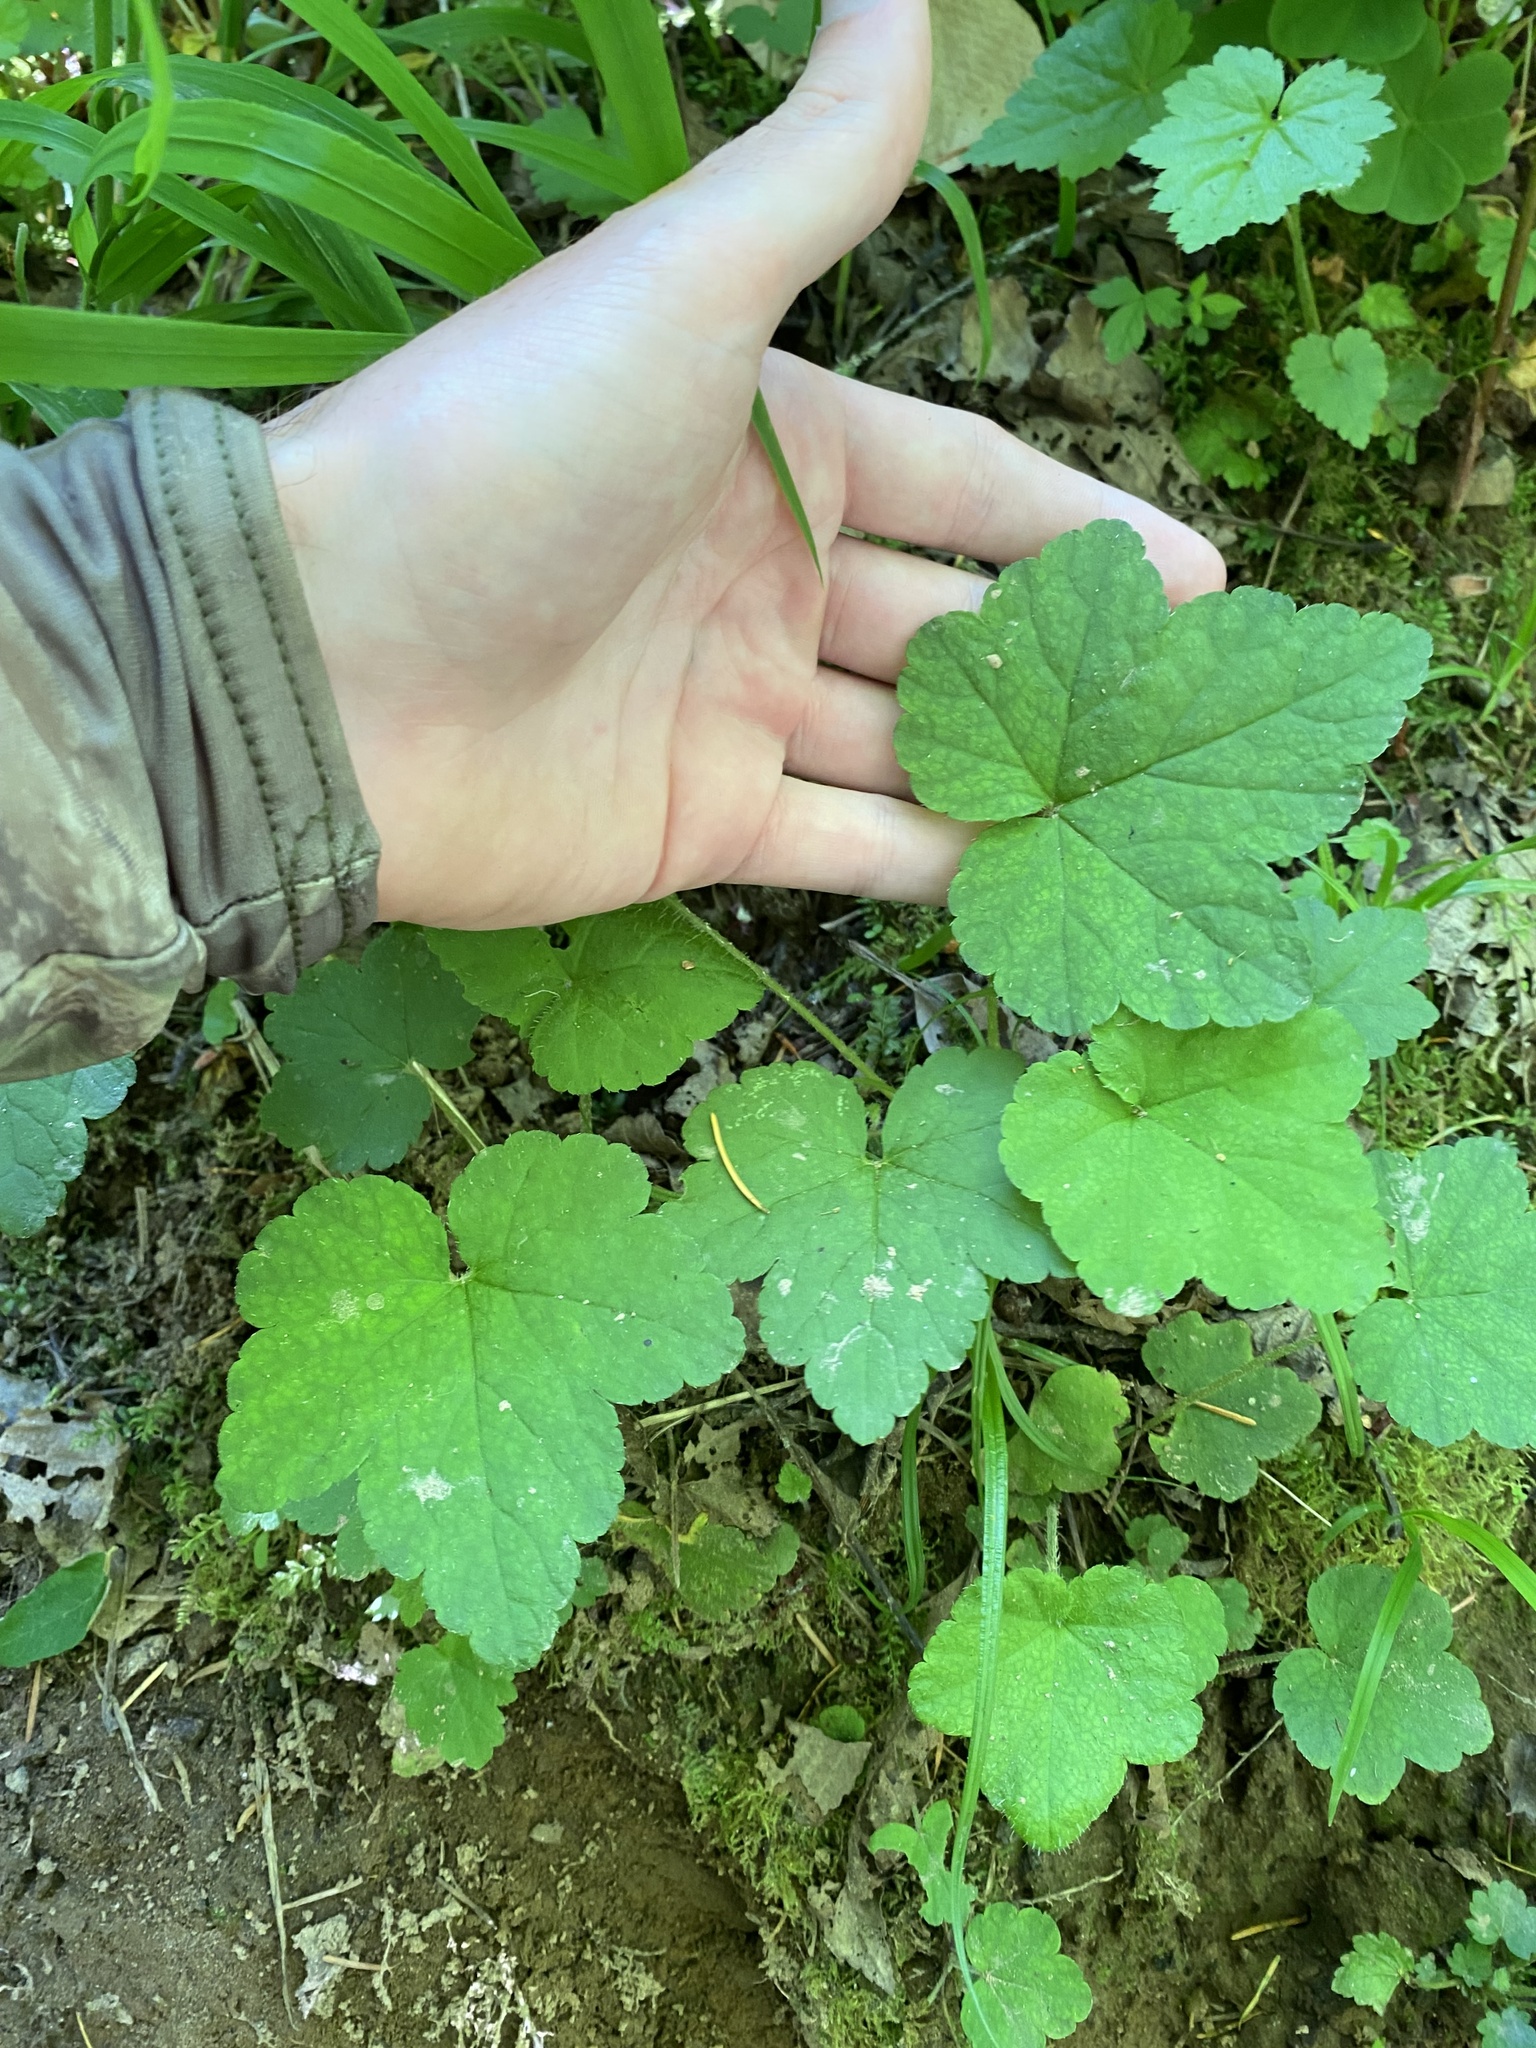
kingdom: Plantae
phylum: Tracheophyta
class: Magnoliopsida
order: Saxifragales
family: Saxifragaceae
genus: Mitellastra
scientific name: Mitellastra caulescens
